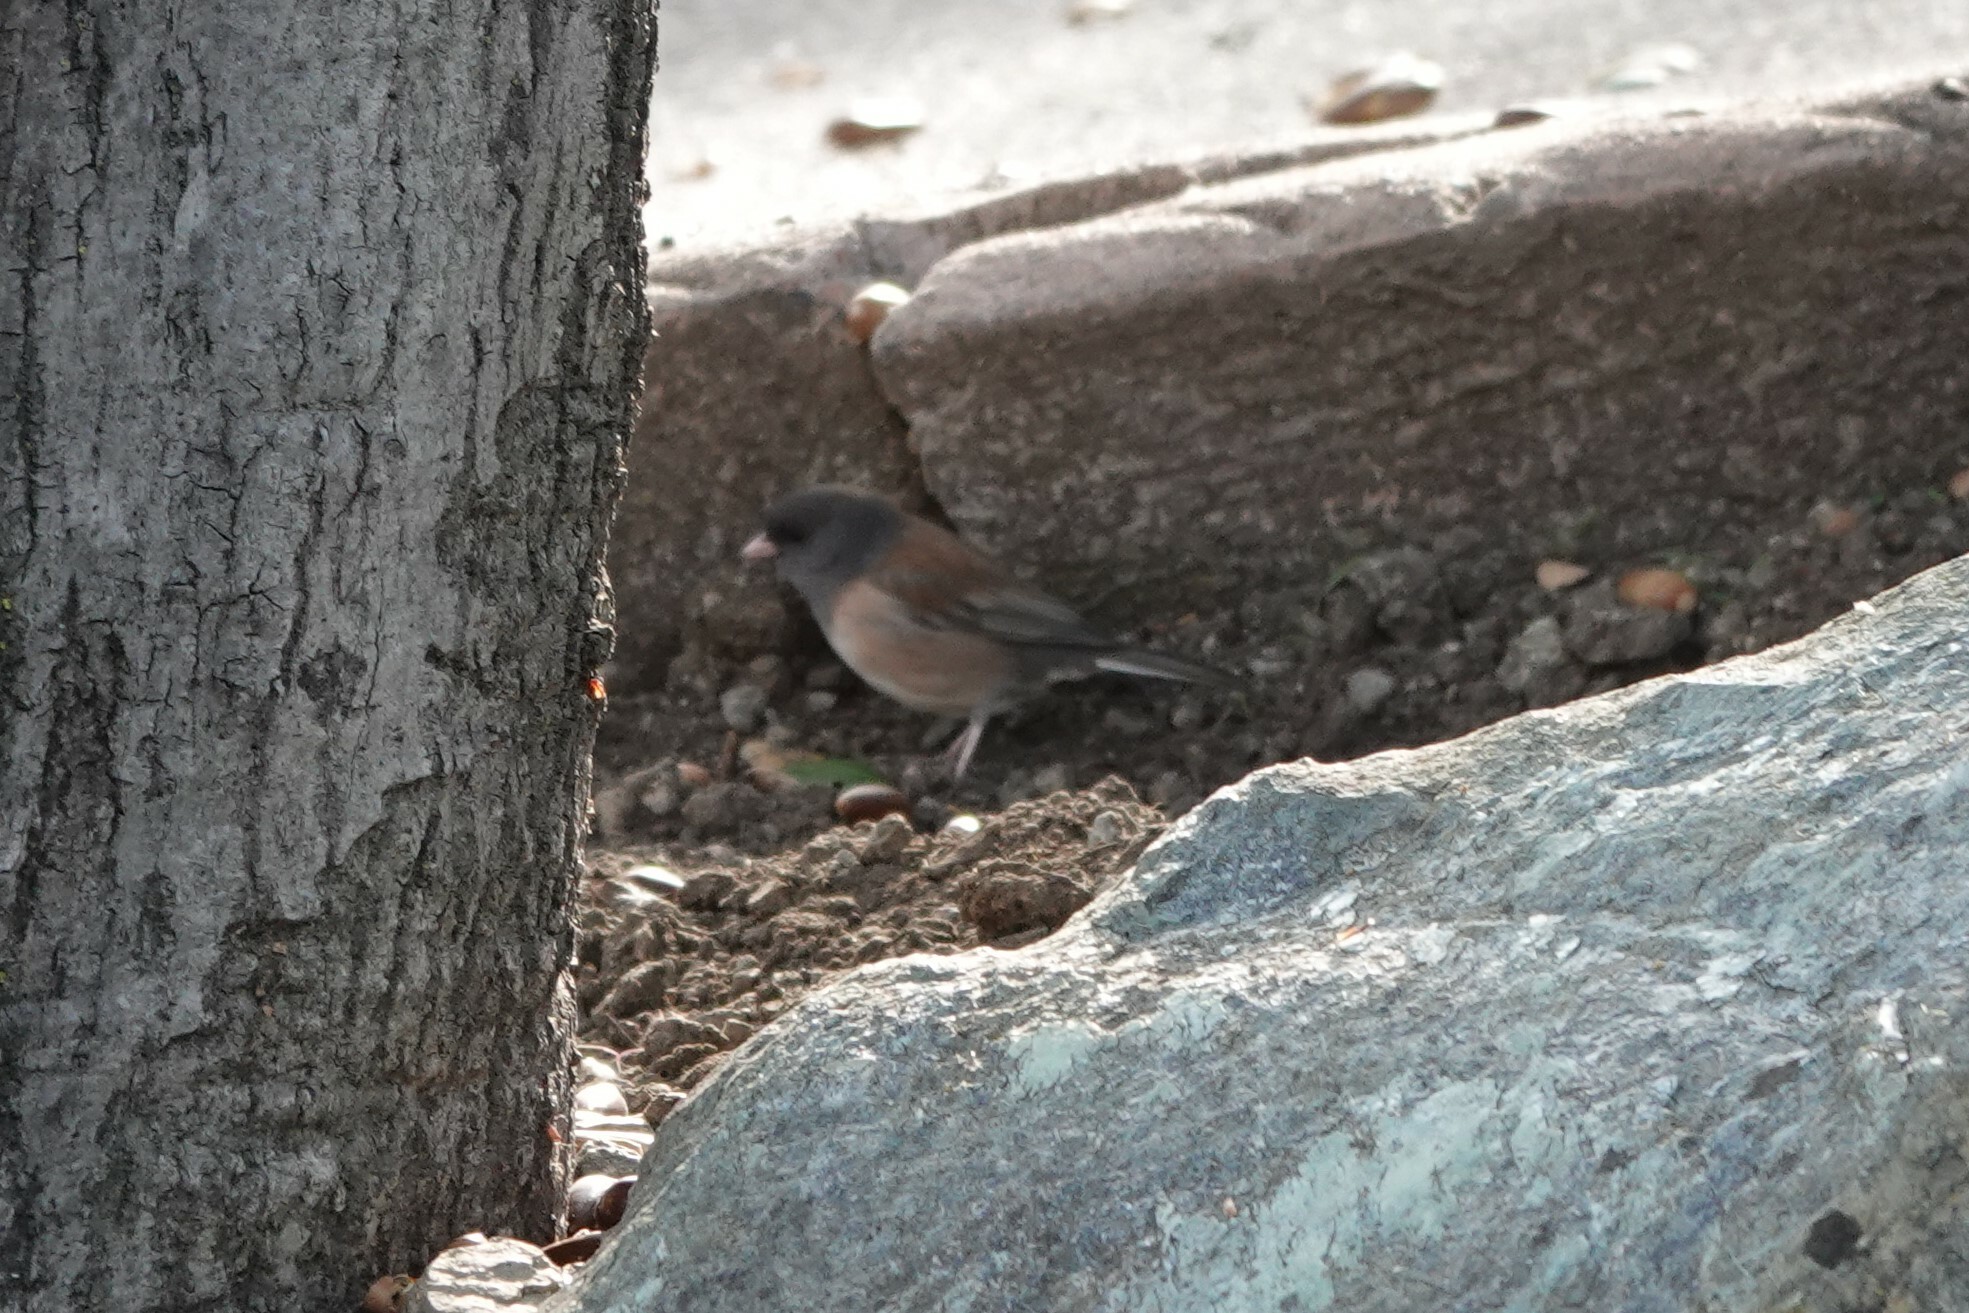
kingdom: Animalia
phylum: Chordata
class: Aves
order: Passeriformes
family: Passerellidae
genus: Junco
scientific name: Junco hyemalis
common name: Dark-eyed junco
